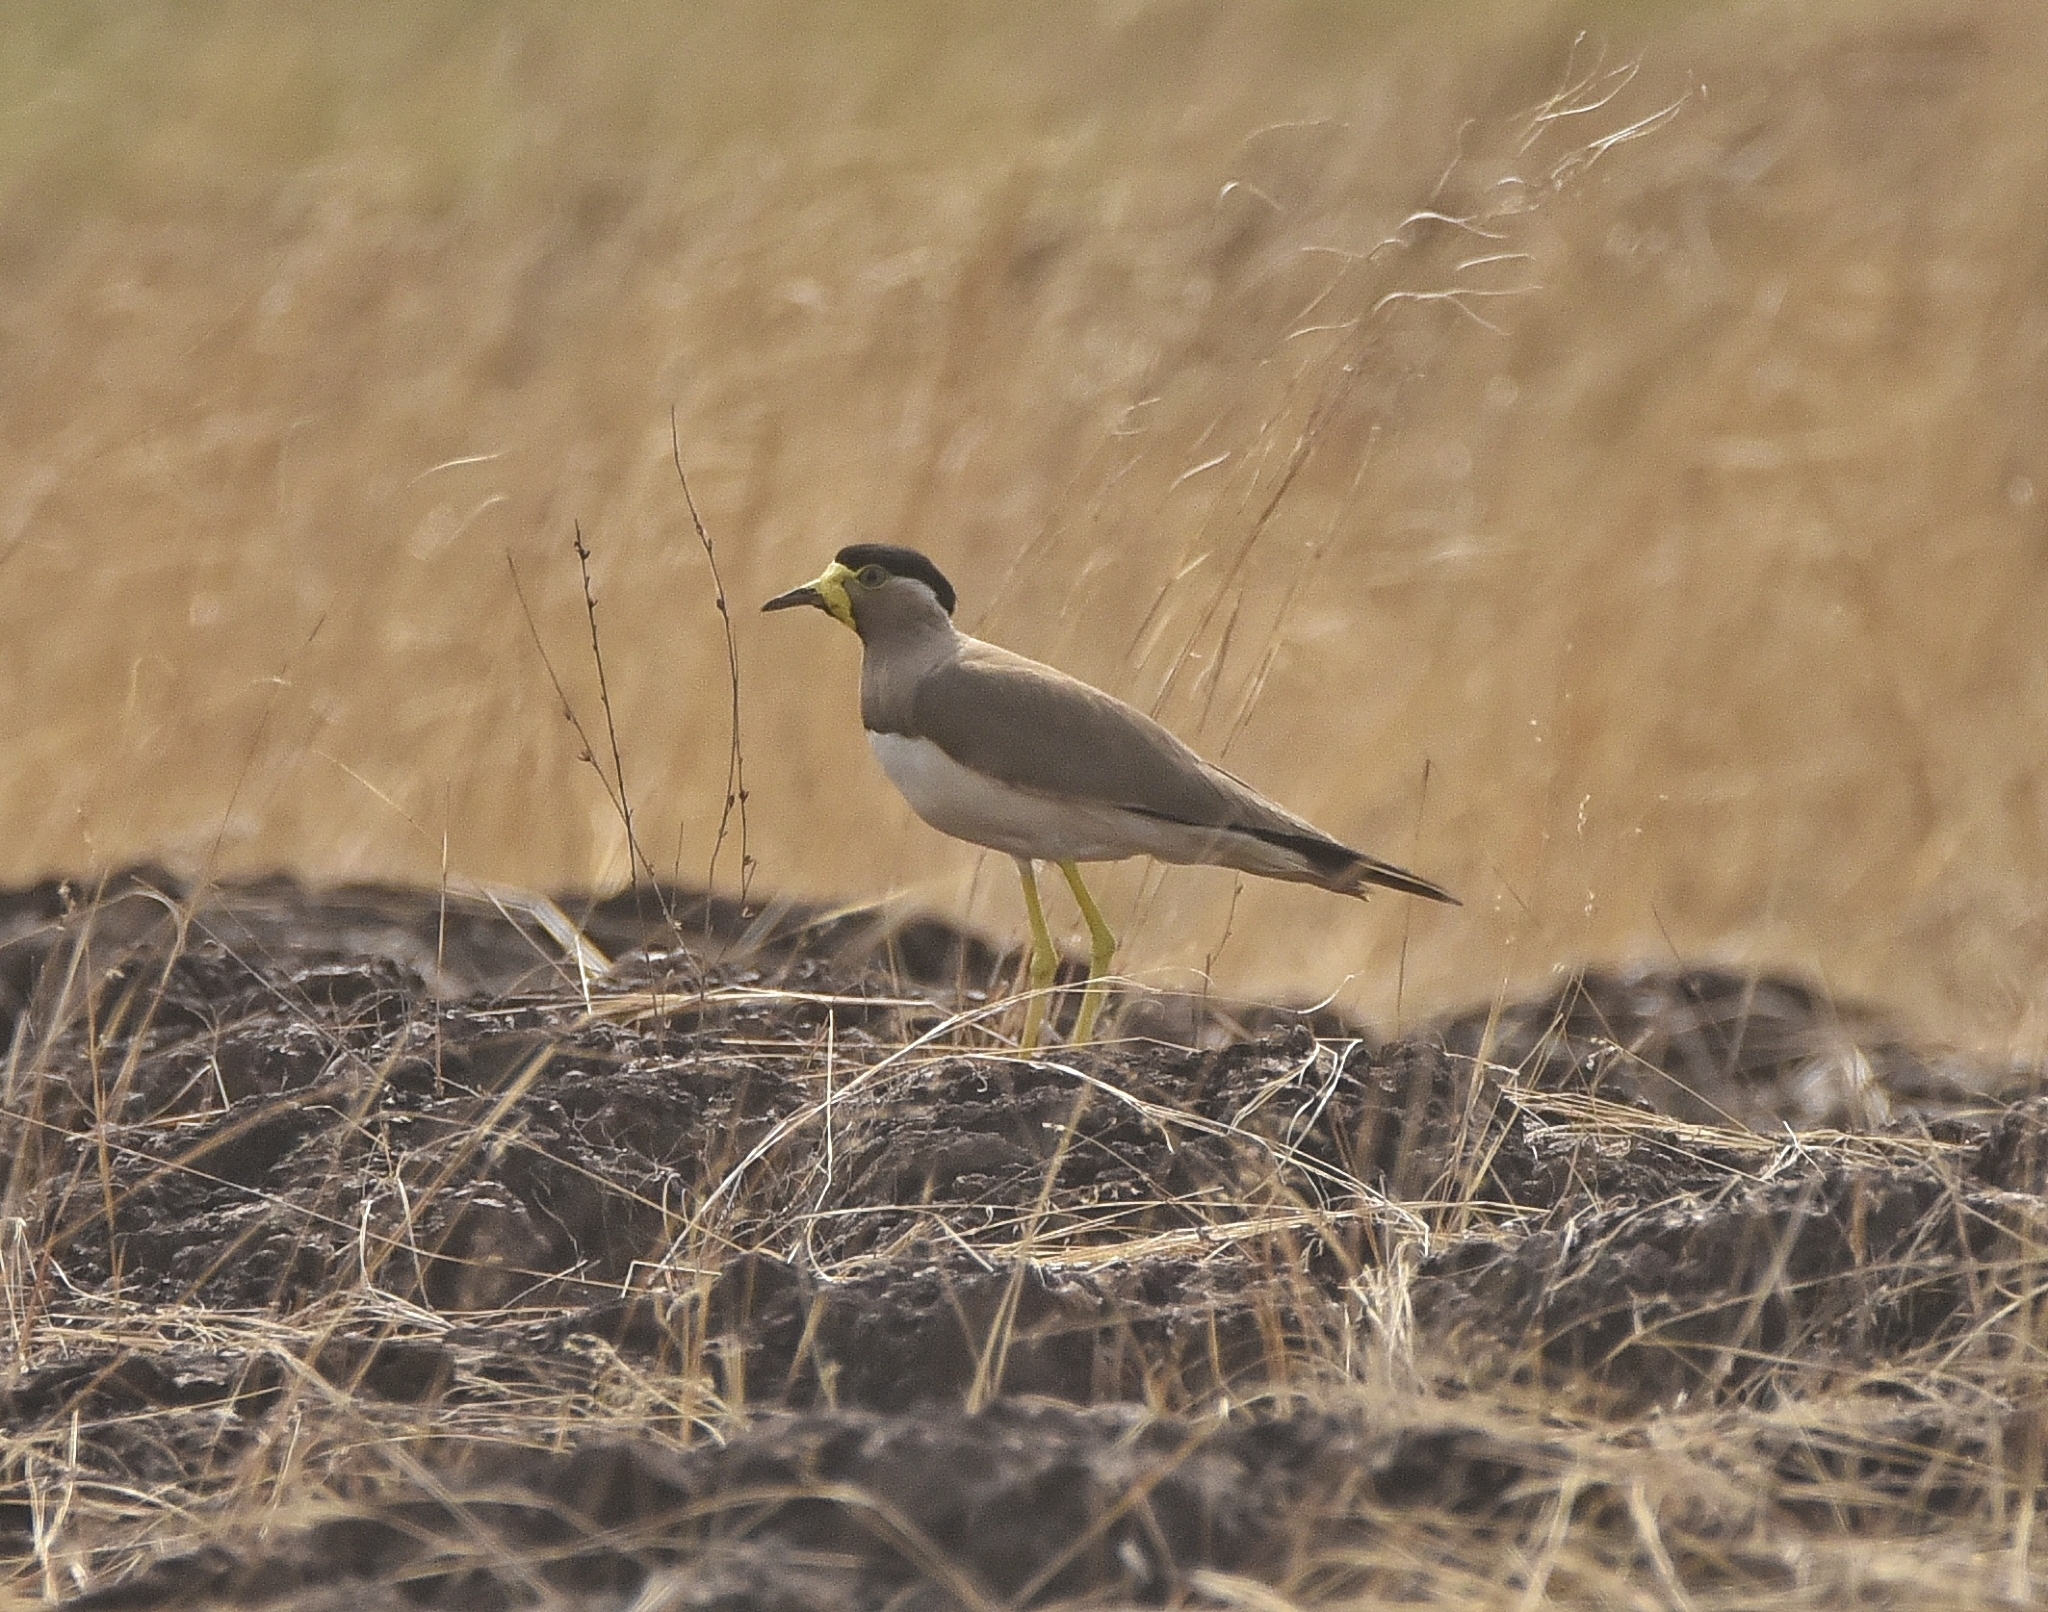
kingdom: Animalia
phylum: Chordata
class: Aves
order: Charadriiformes
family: Charadriidae
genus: Vanellus
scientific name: Vanellus malabaricus
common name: Yellow-wattled lapwing
